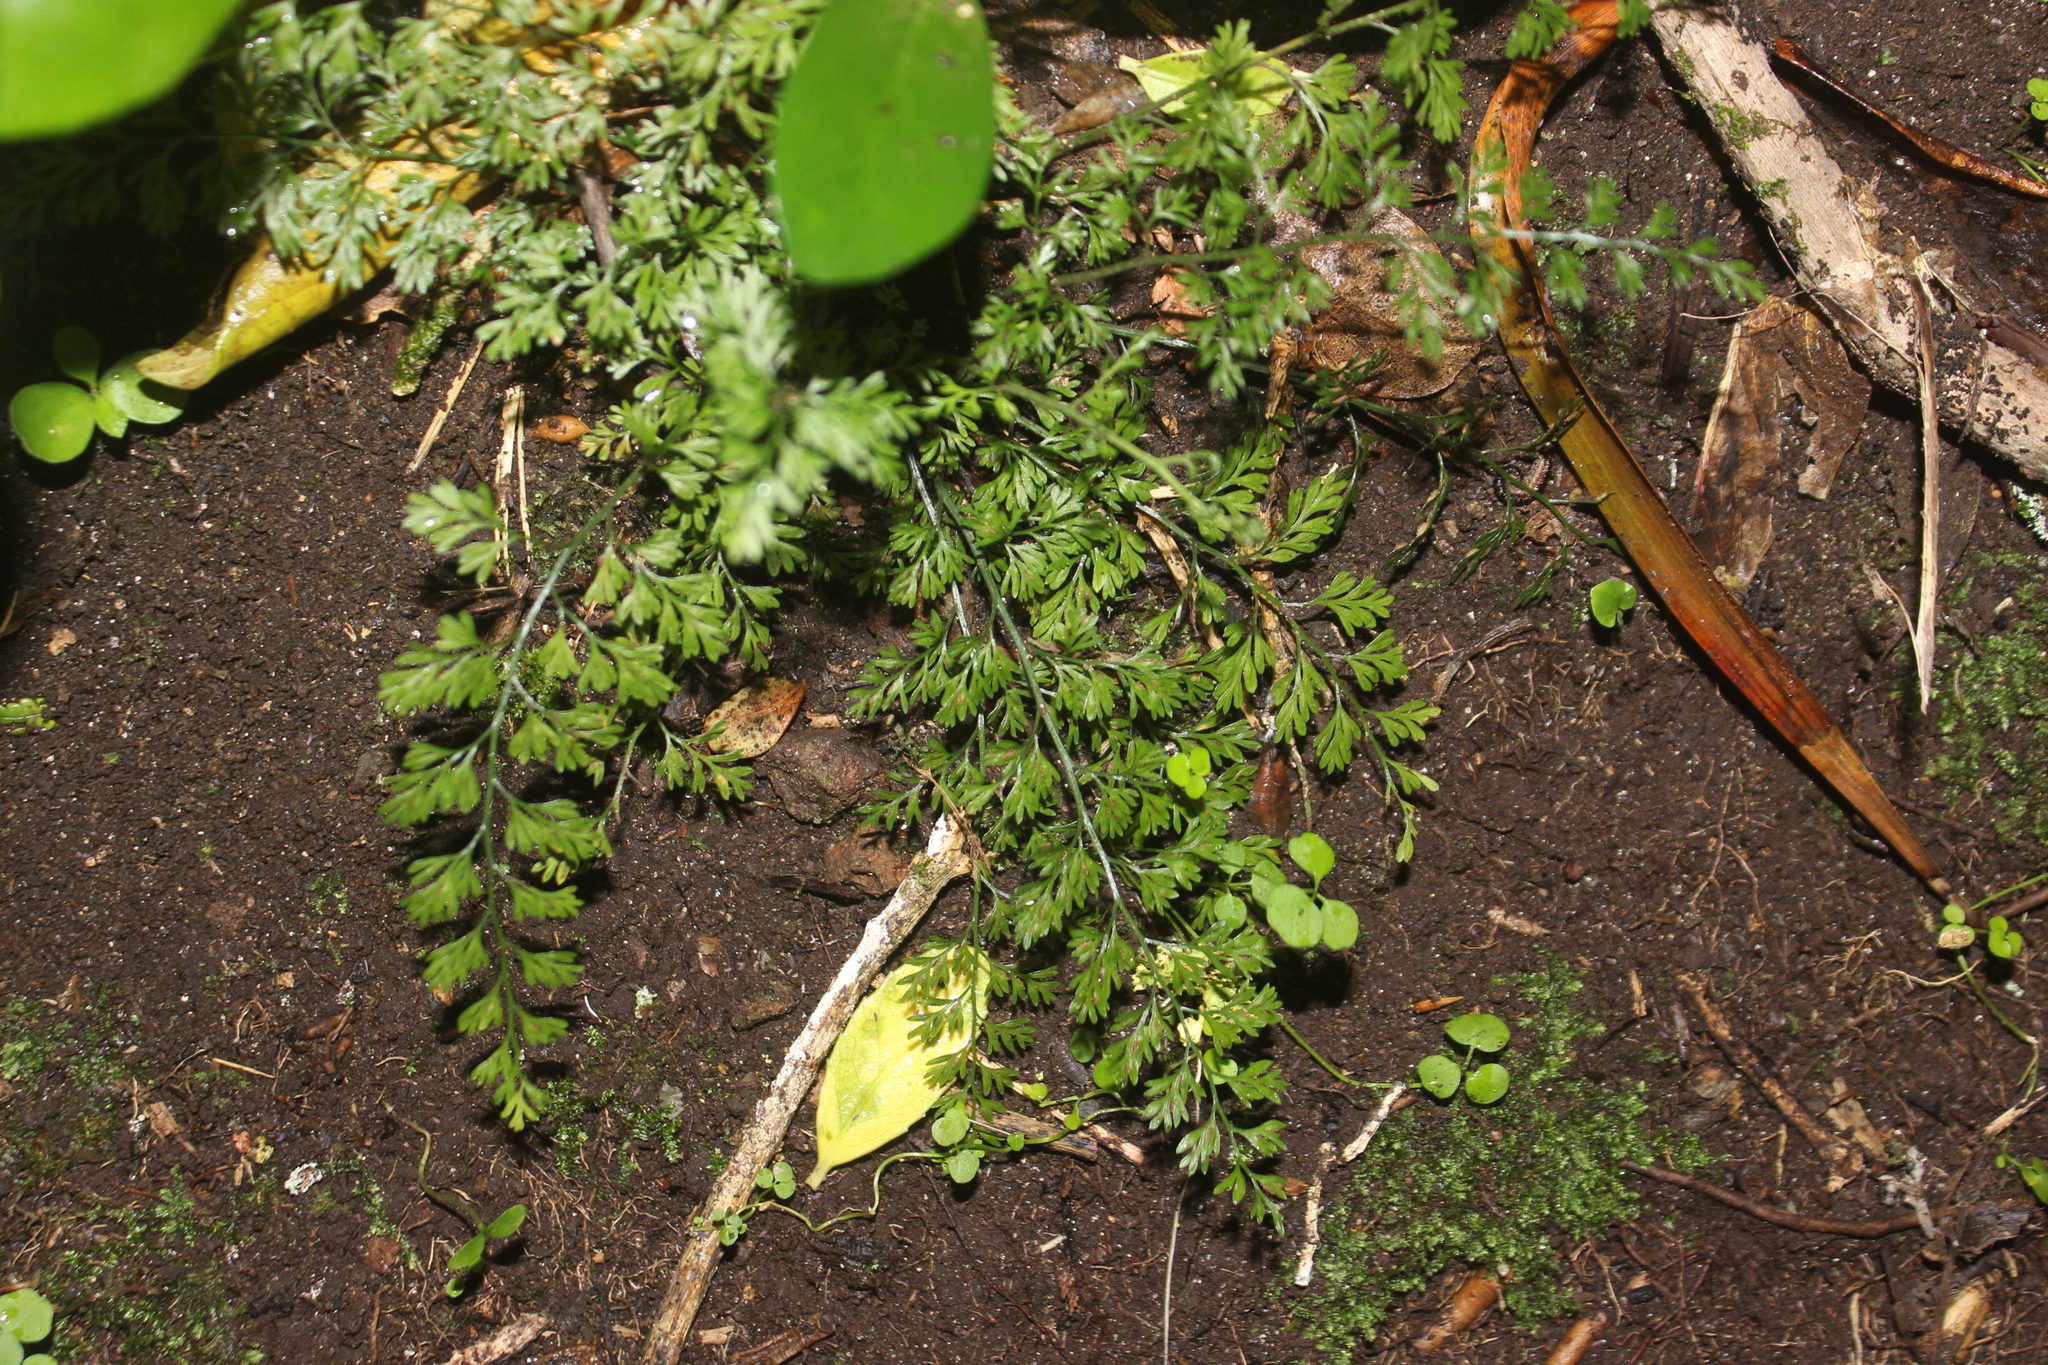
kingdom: Plantae
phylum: Tracheophyta
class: Polypodiopsida
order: Polypodiales
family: Aspleniaceae
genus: Asplenium
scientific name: Asplenium hookerianum
